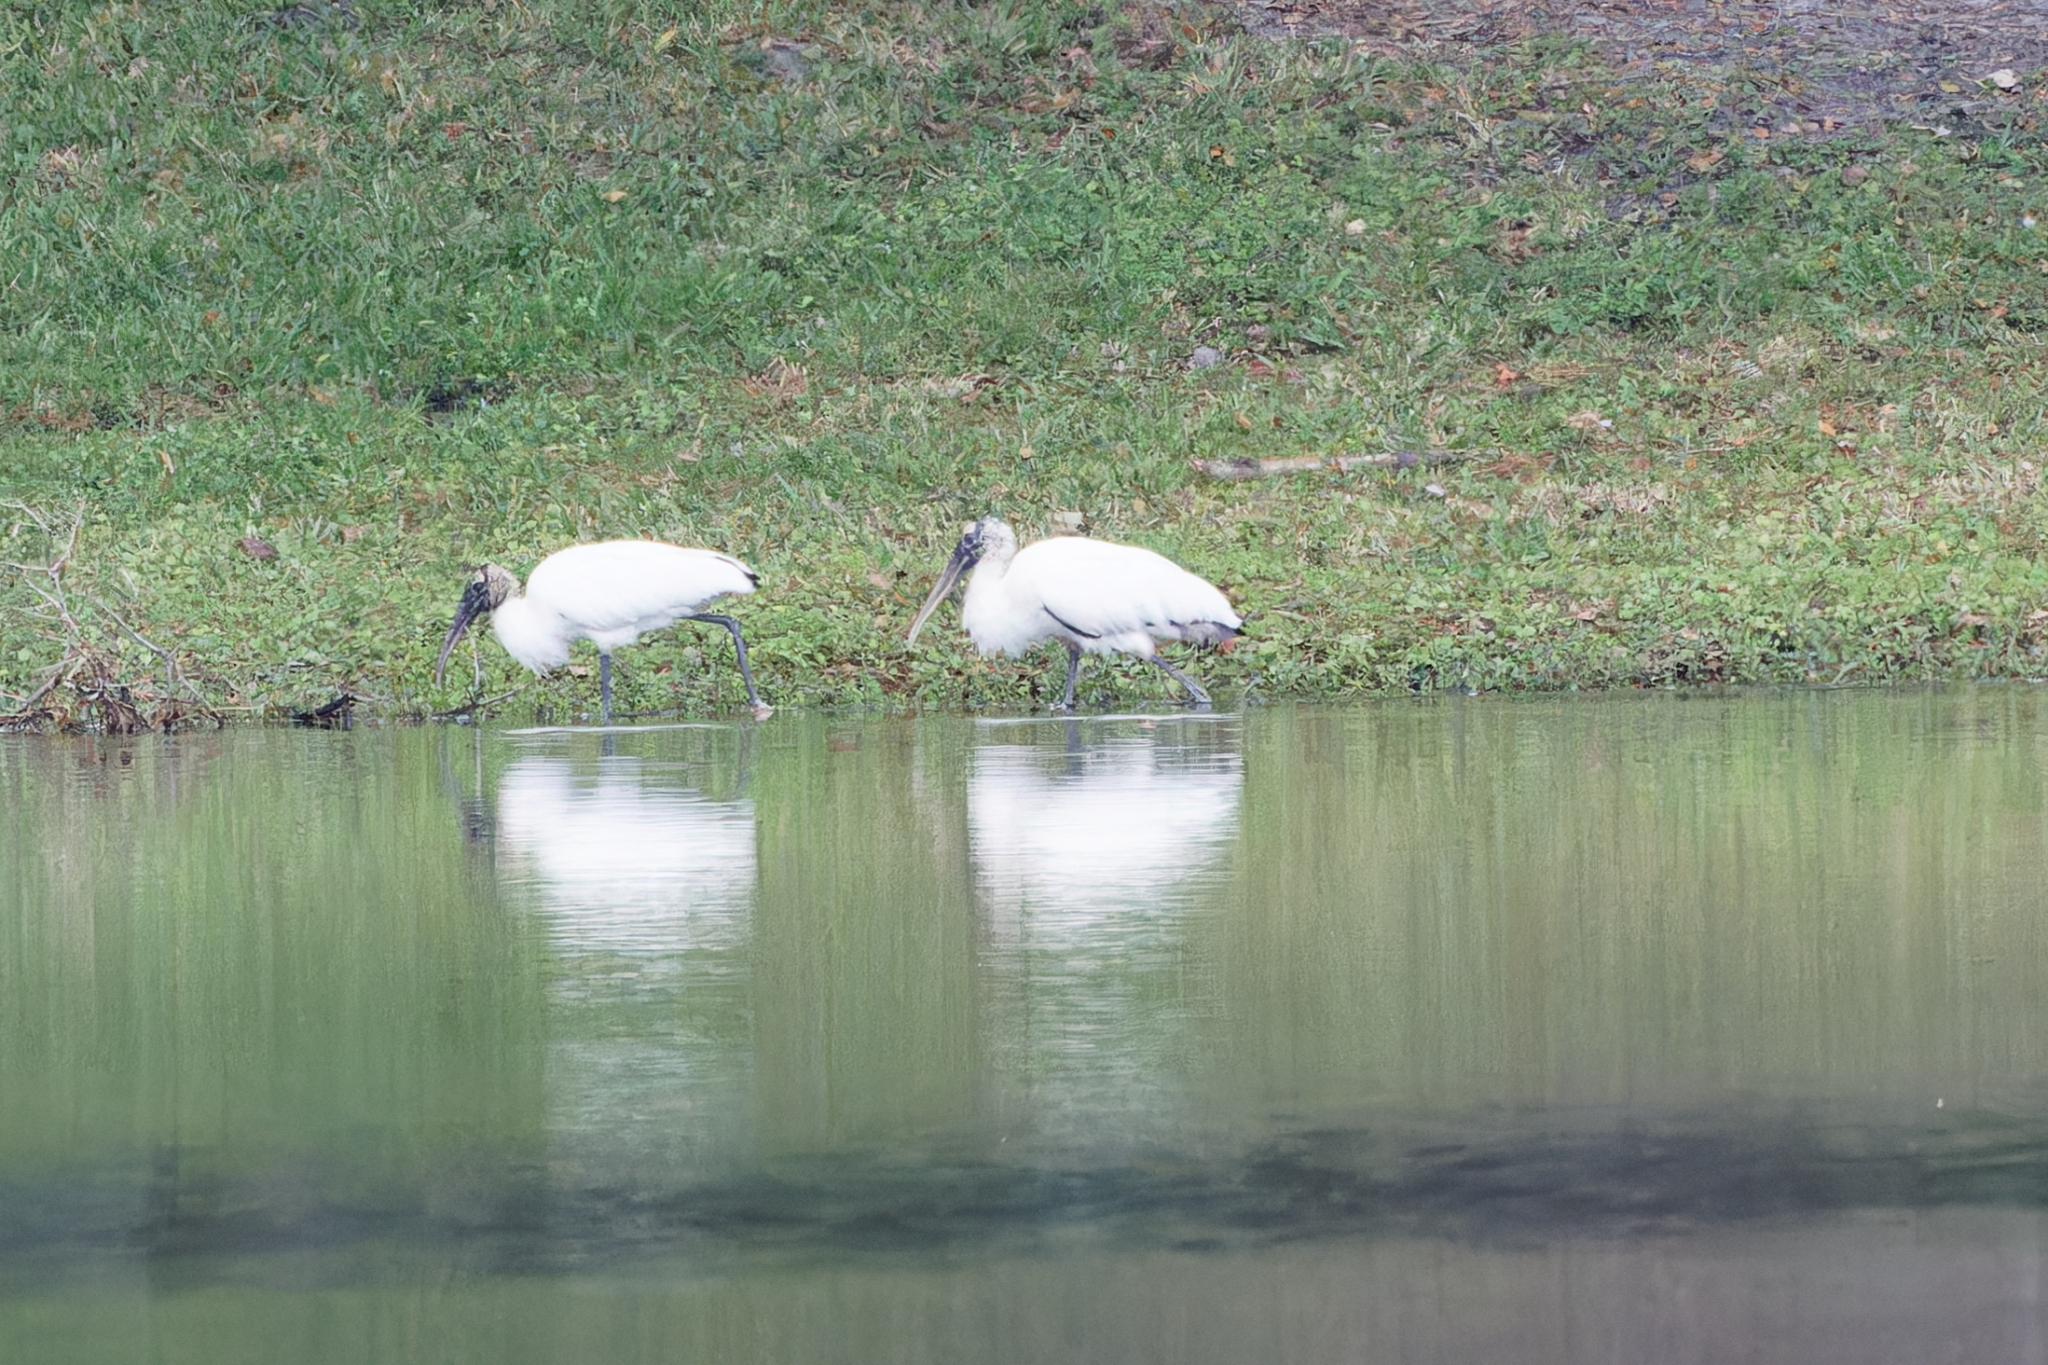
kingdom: Animalia
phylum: Chordata
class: Aves
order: Ciconiiformes
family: Ciconiidae
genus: Mycteria
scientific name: Mycteria americana
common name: Wood stork
